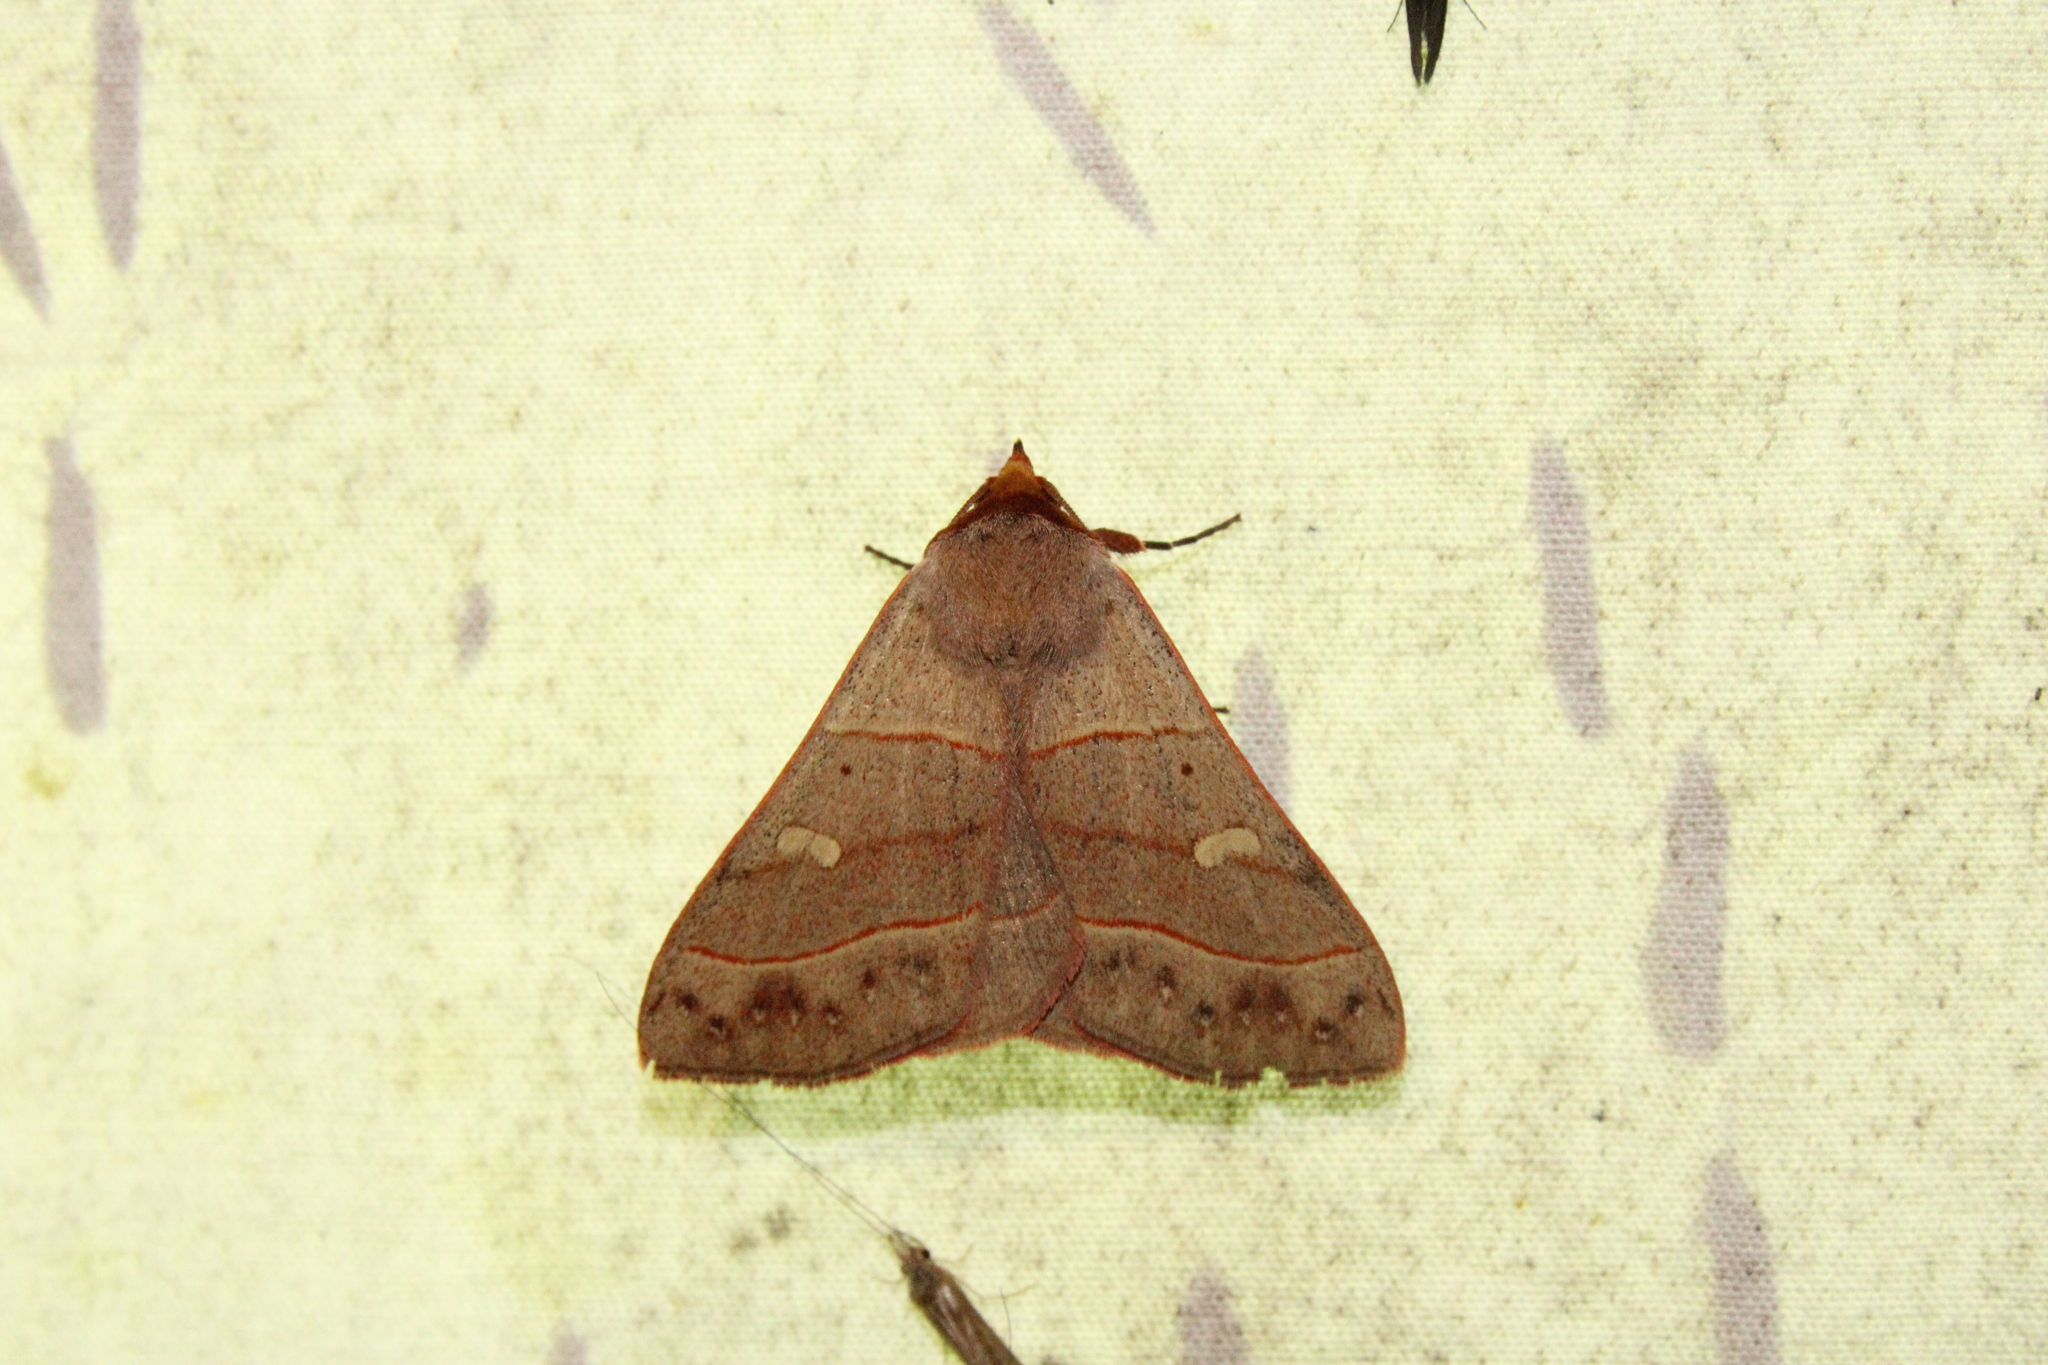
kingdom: Animalia
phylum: Arthropoda
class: Insecta
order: Lepidoptera
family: Erebidae
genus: Panopoda
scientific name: Panopoda rufimargo
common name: Red-lined panopoda moth
